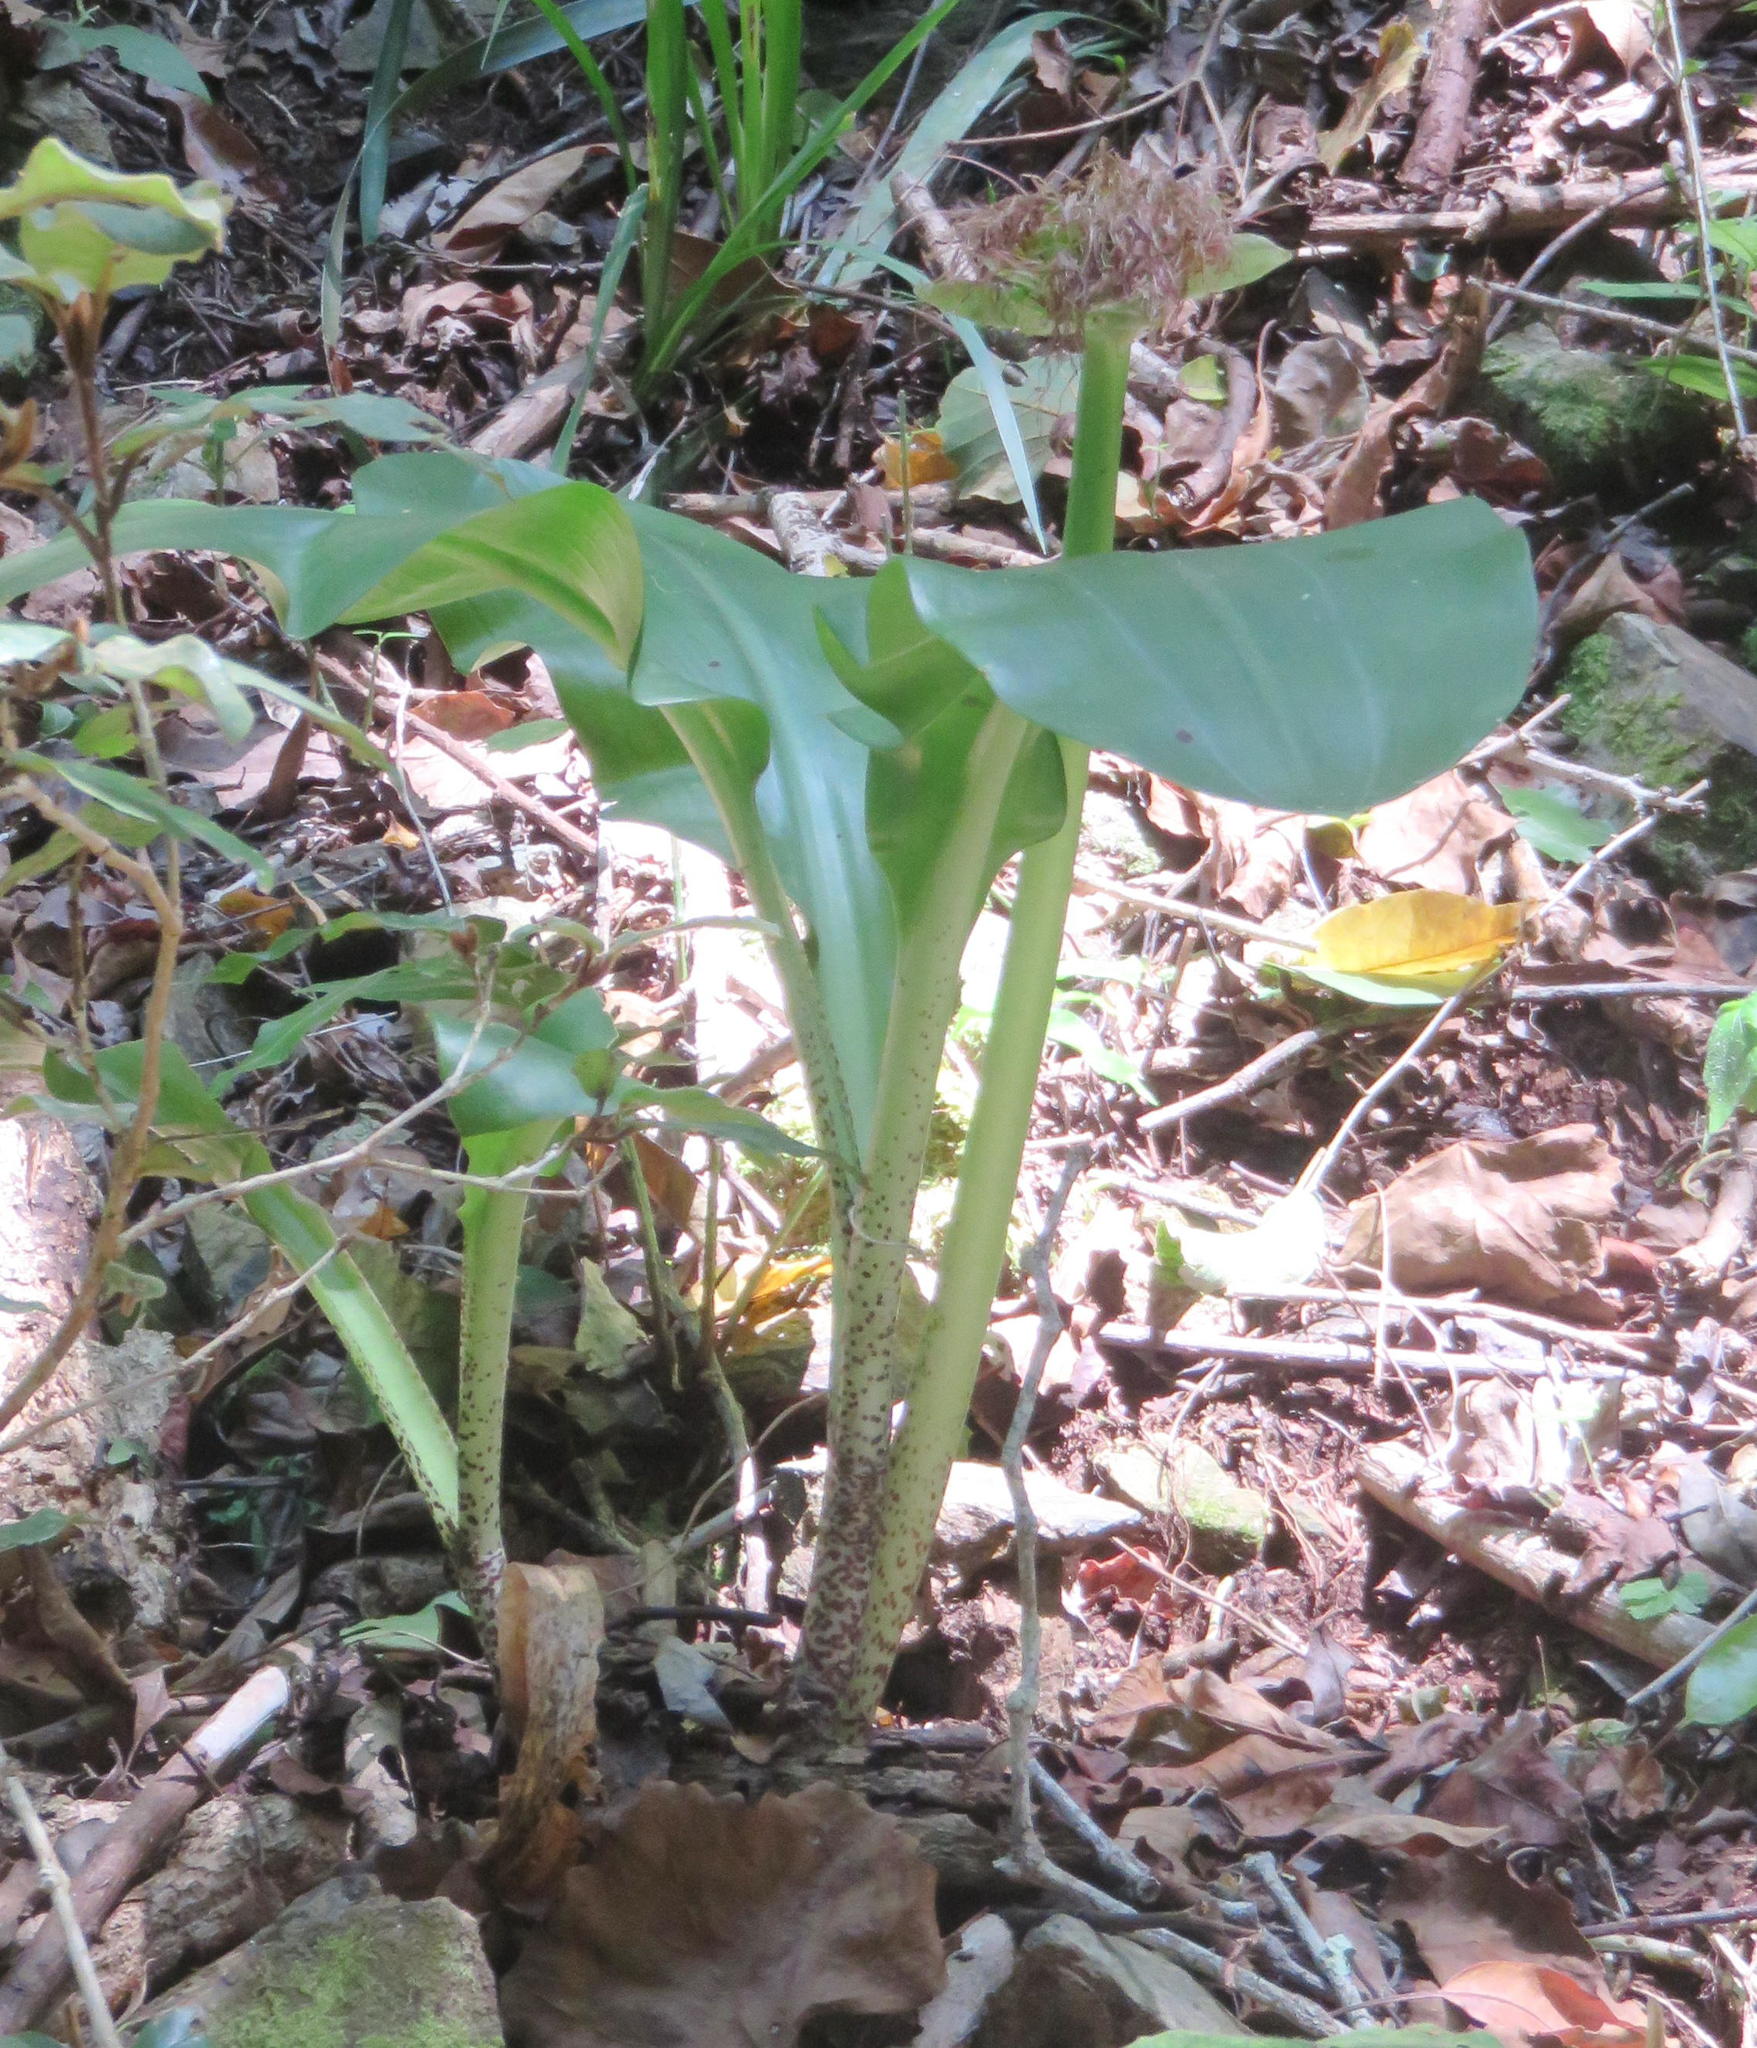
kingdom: Plantae
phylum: Tracheophyta
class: Liliopsida
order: Asparagales
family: Amaryllidaceae
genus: Scadoxus
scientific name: Scadoxus puniceus
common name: Royal-paintbrush
